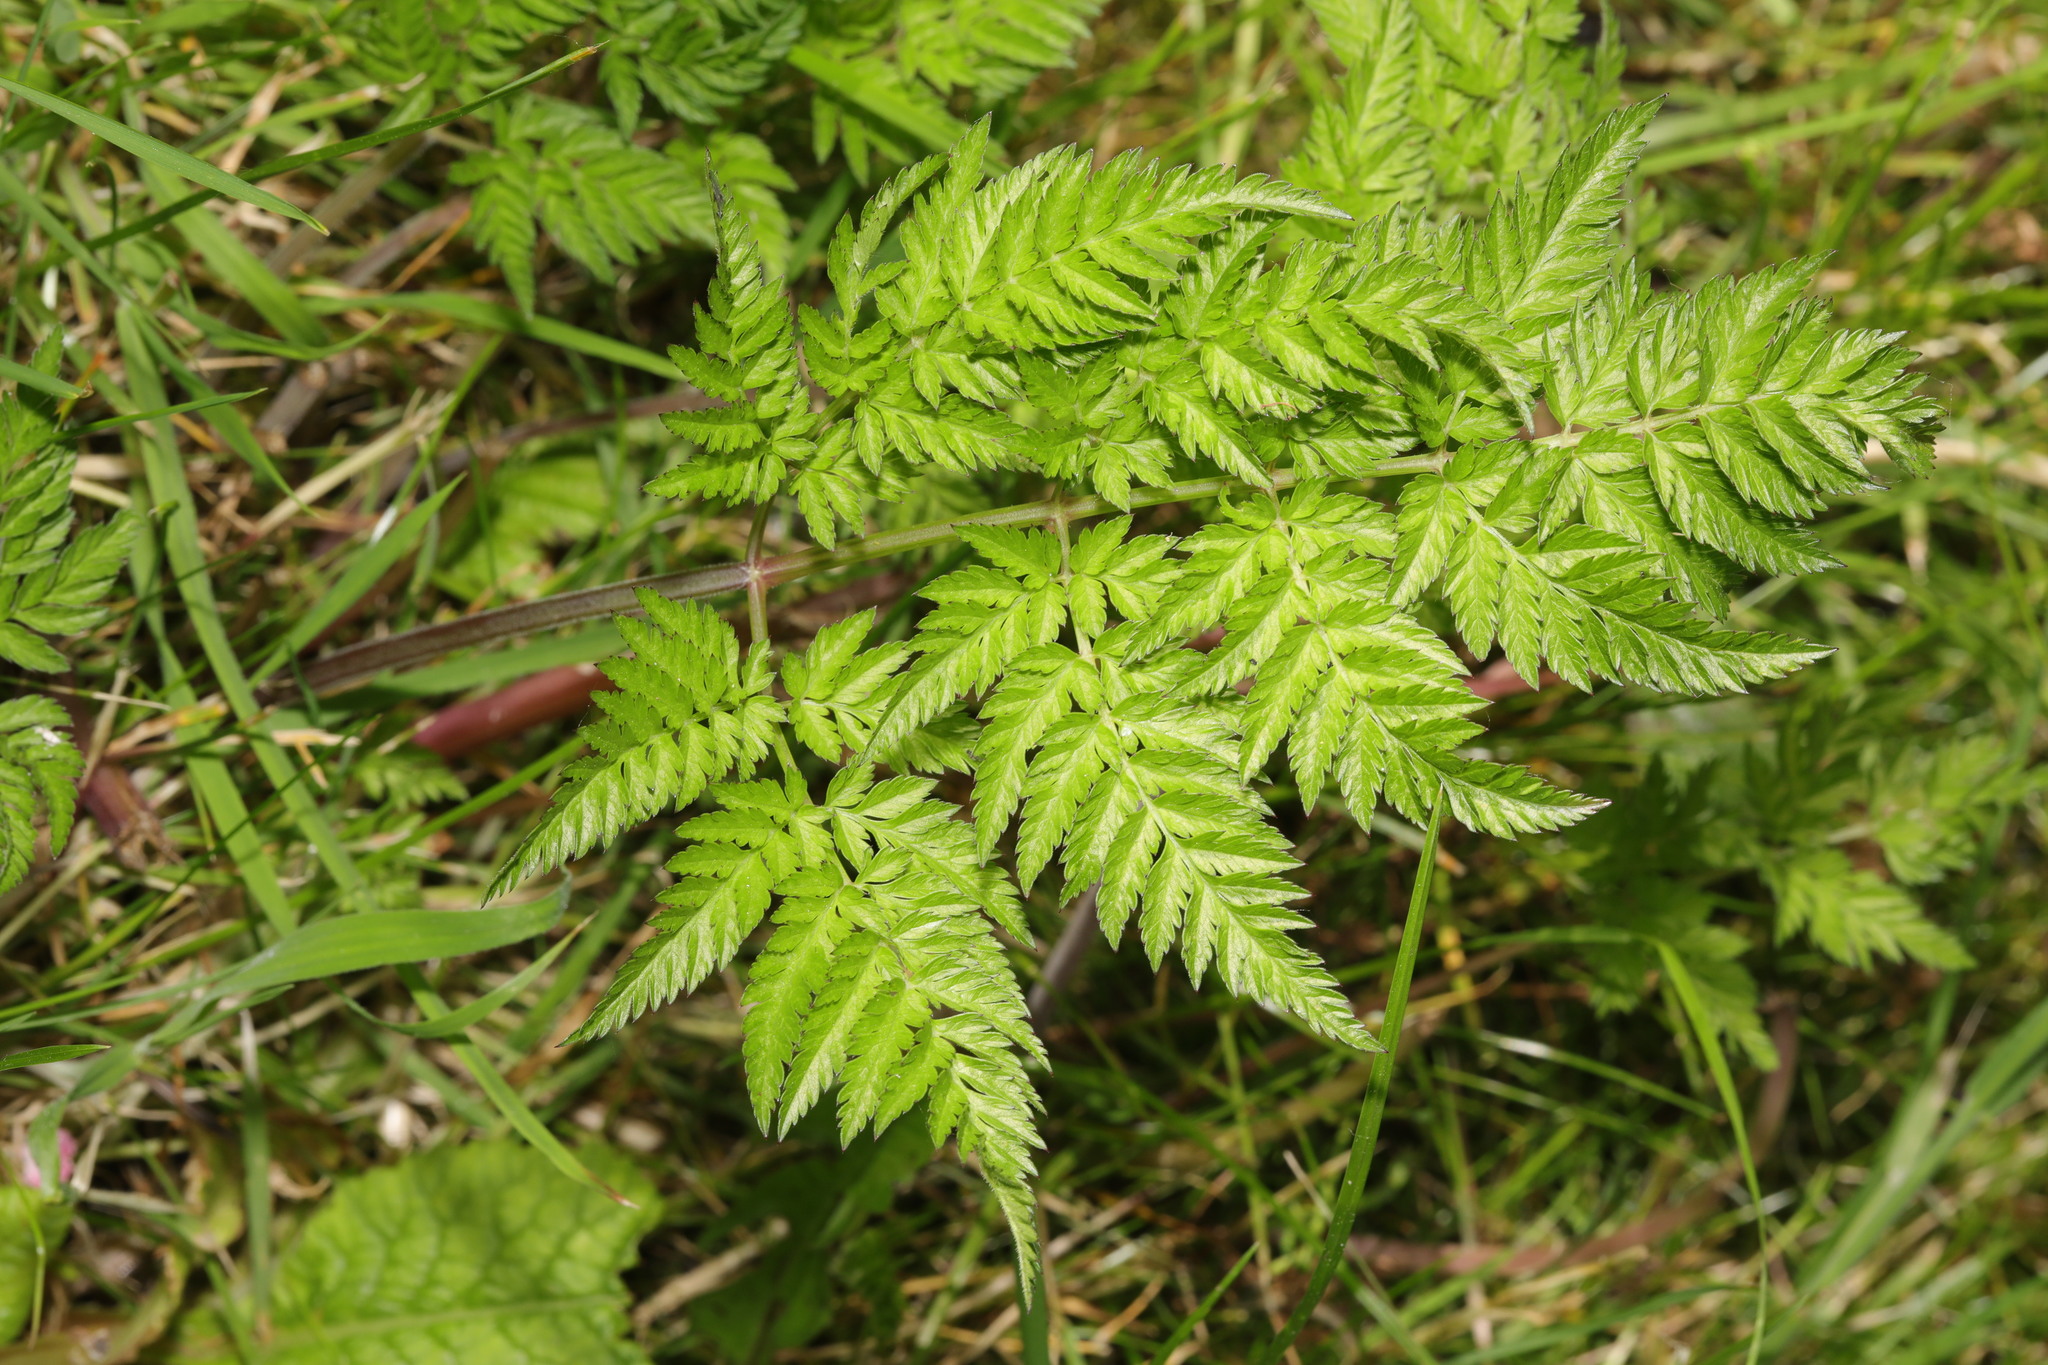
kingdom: Plantae
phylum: Tracheophyta
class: Magnoliopsida
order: Apiales
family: Apiaceae
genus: Anthriscus
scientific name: Anthriscus sylvestris
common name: Cow parsley
